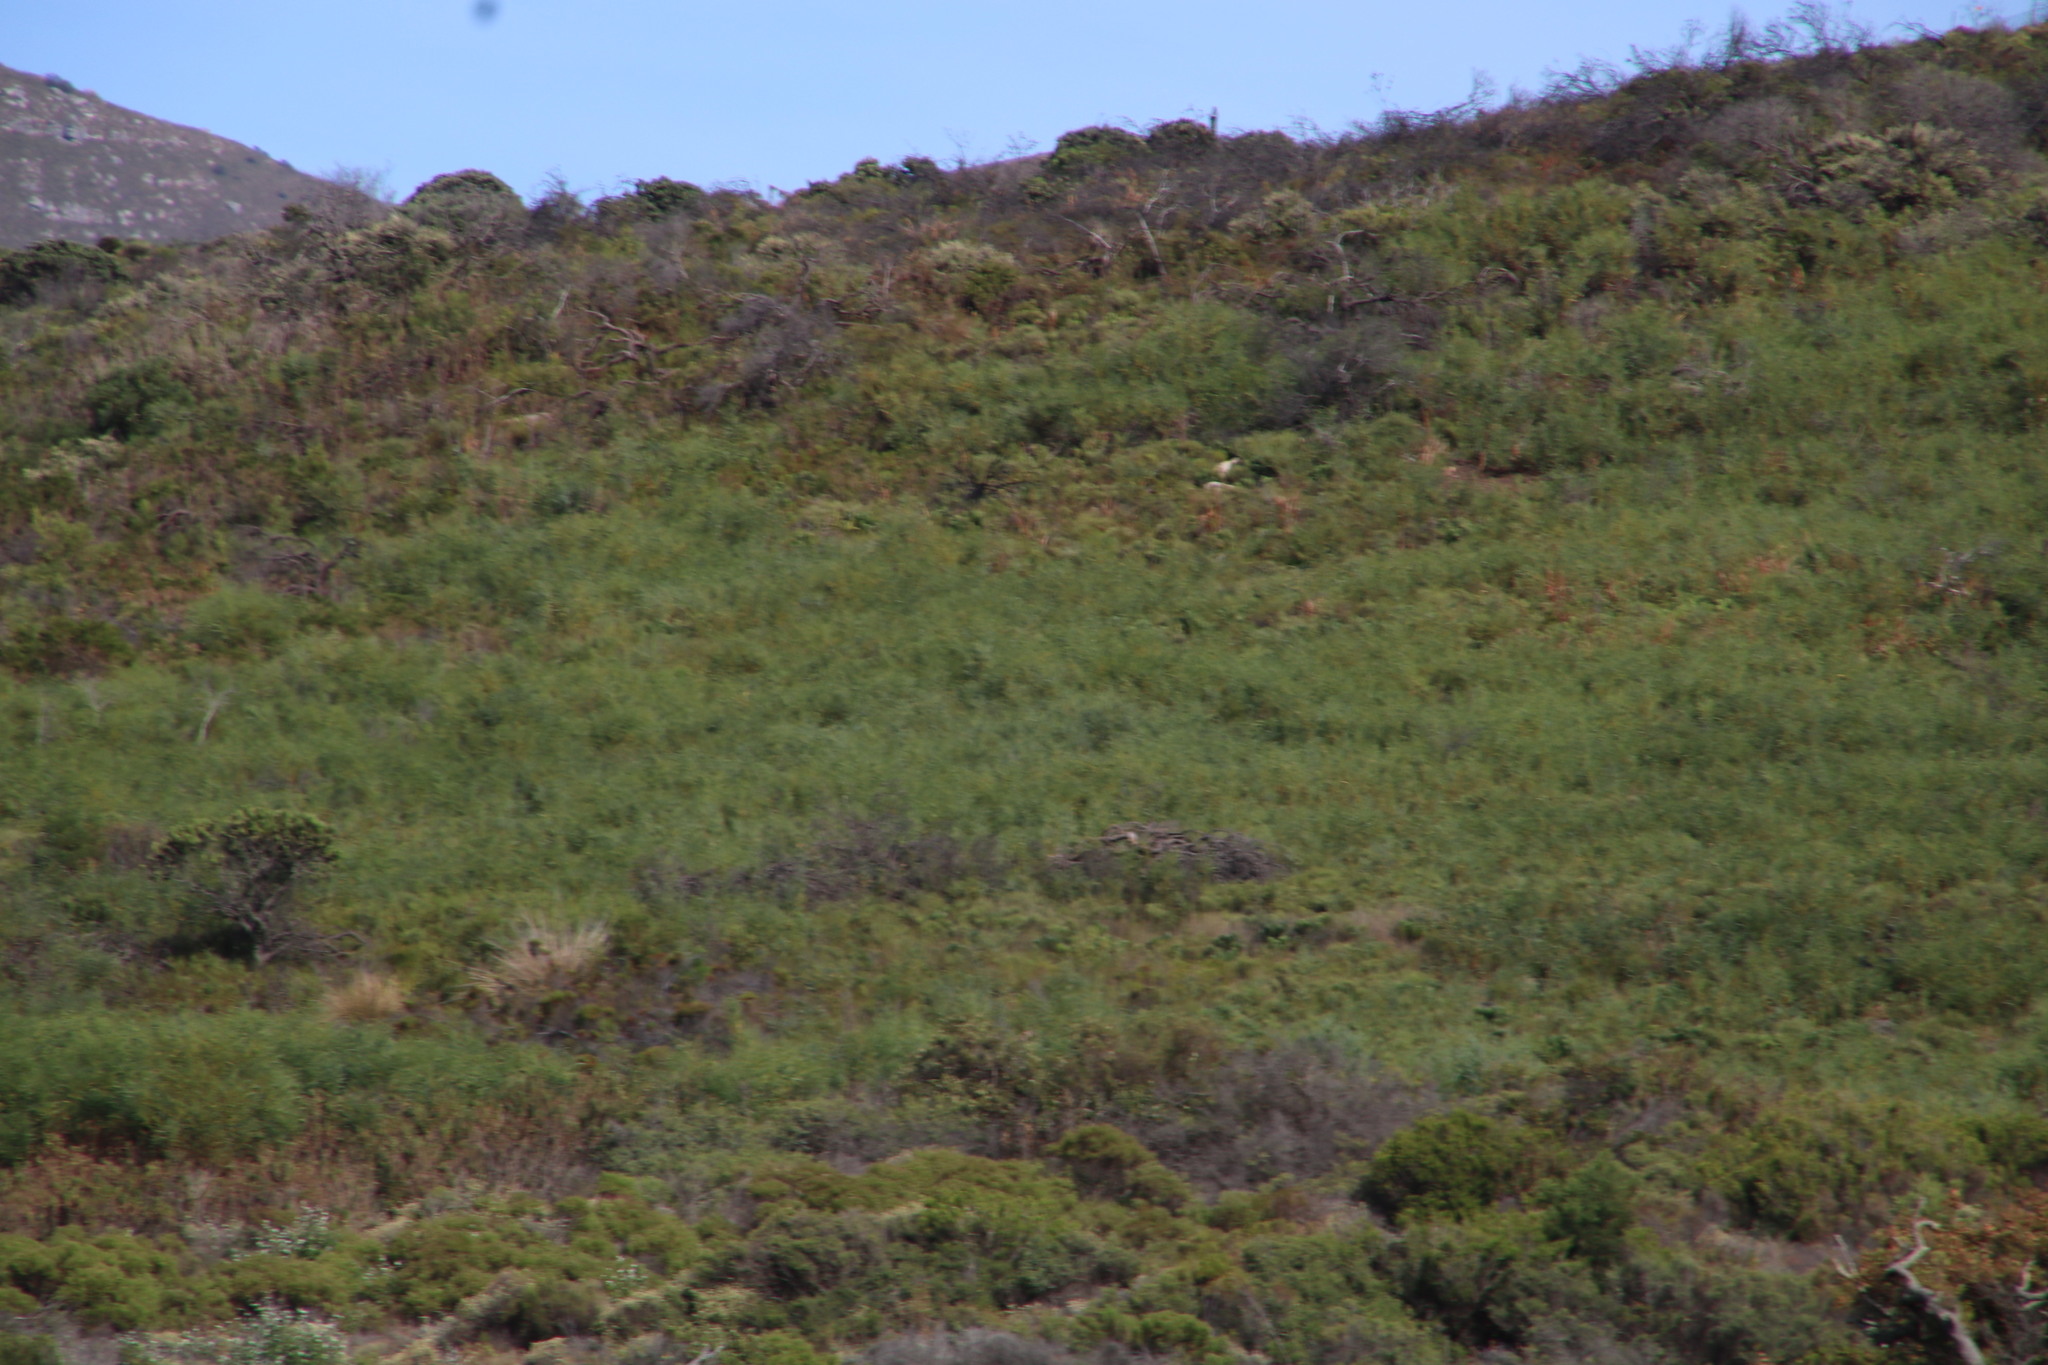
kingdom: Plantae
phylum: Tracheophyta
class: Magnoliopsida
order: Fabales
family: Fabaceae
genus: Acacia
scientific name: Acacia saligna
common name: Orange wattle
